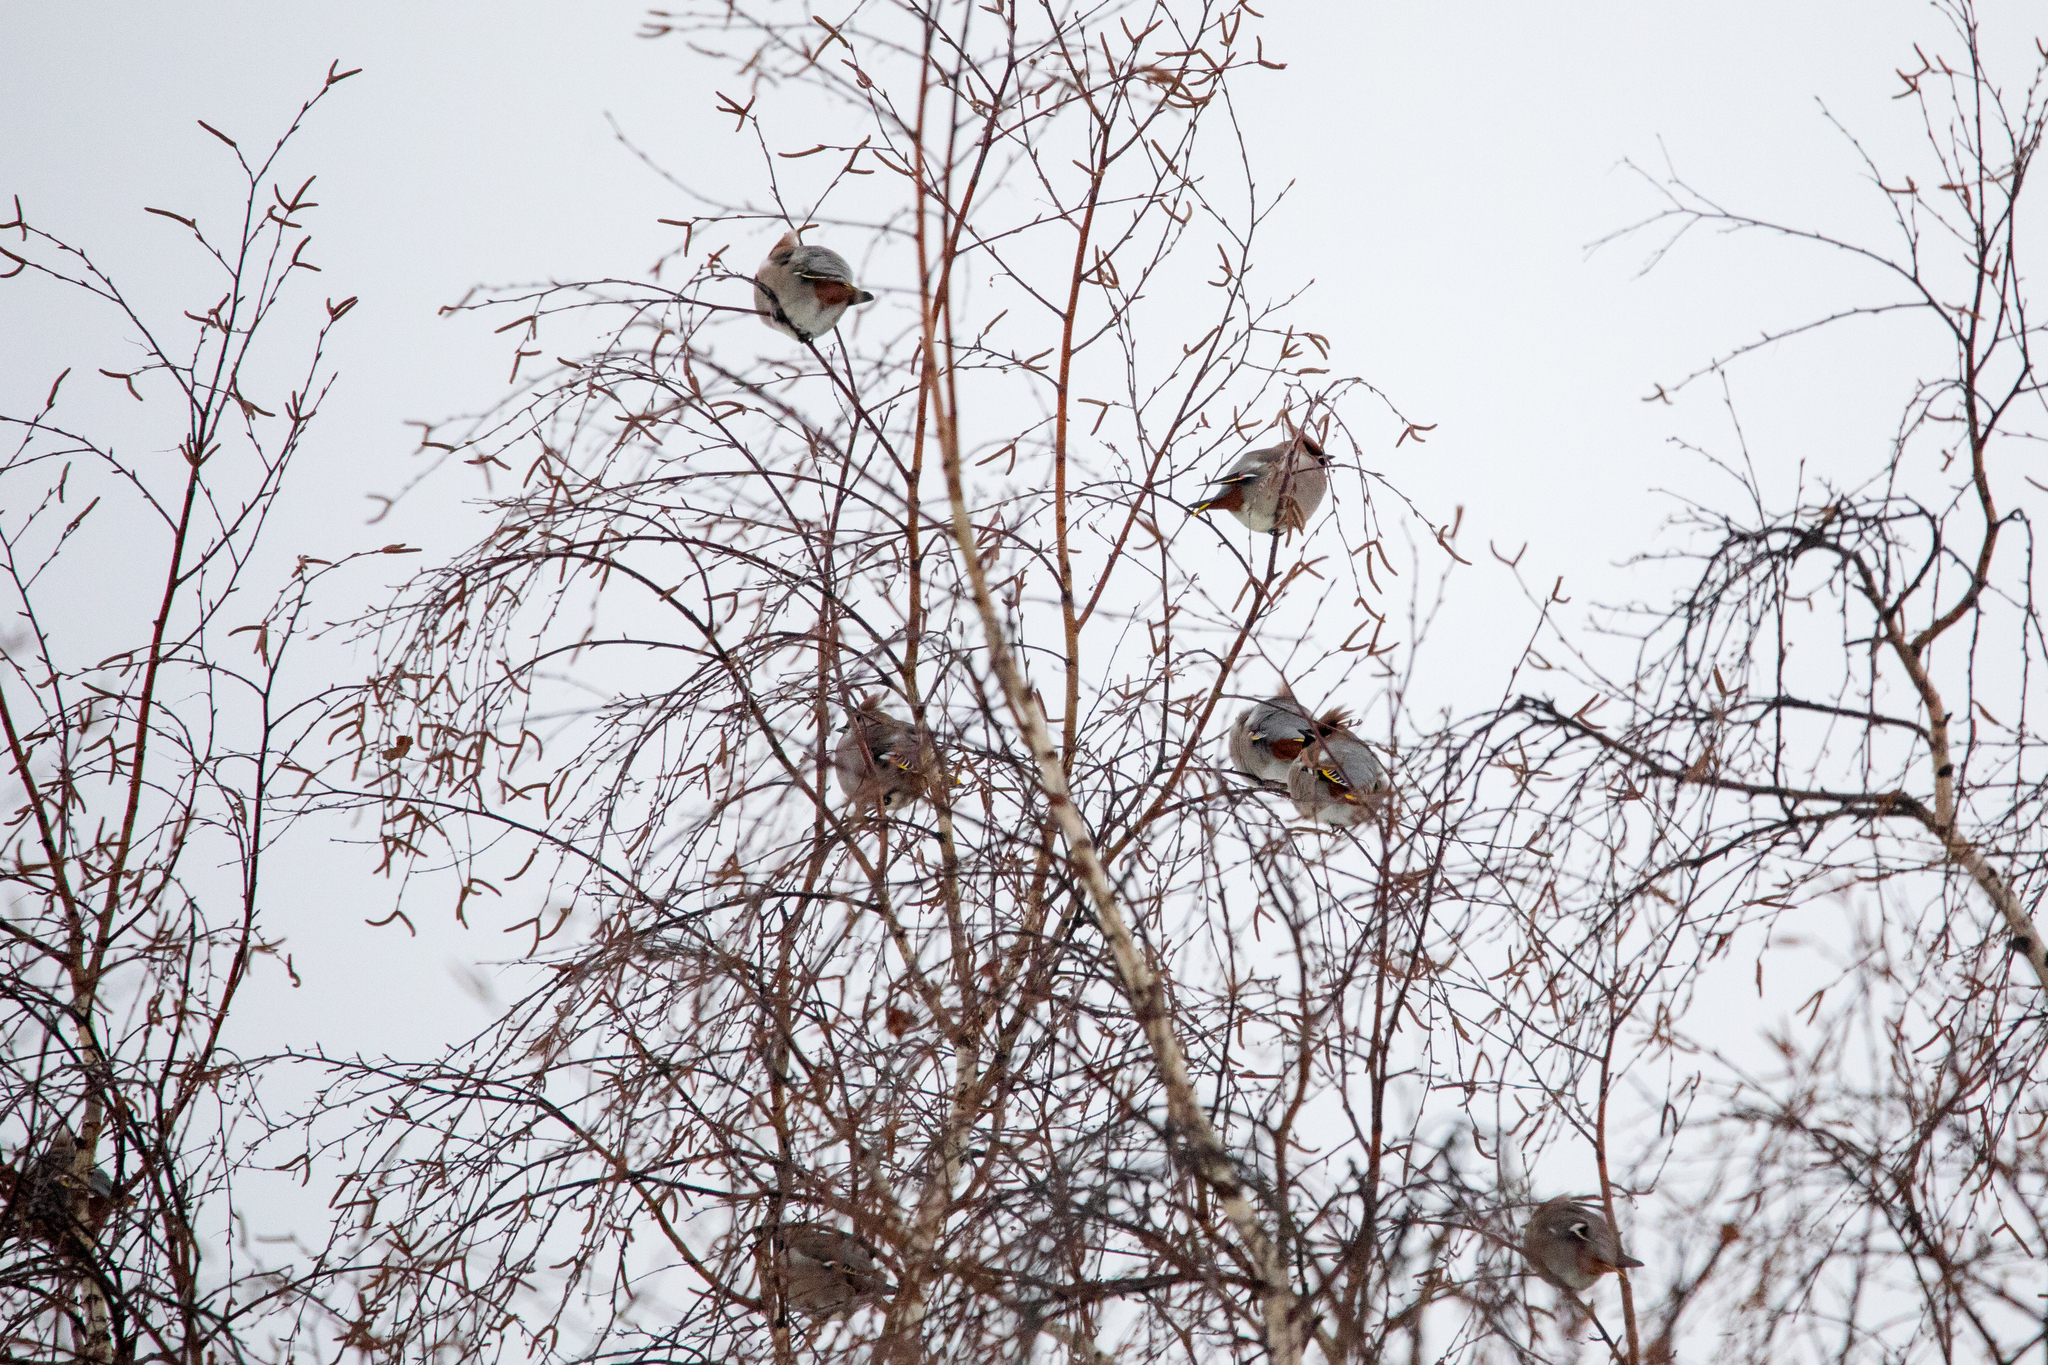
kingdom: Animalia
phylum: Chordata
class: Aves
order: Passeriformes
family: Bombycillidae
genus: Bombycilla
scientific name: Bombycilla garrulus
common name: Bohemian waxwing
